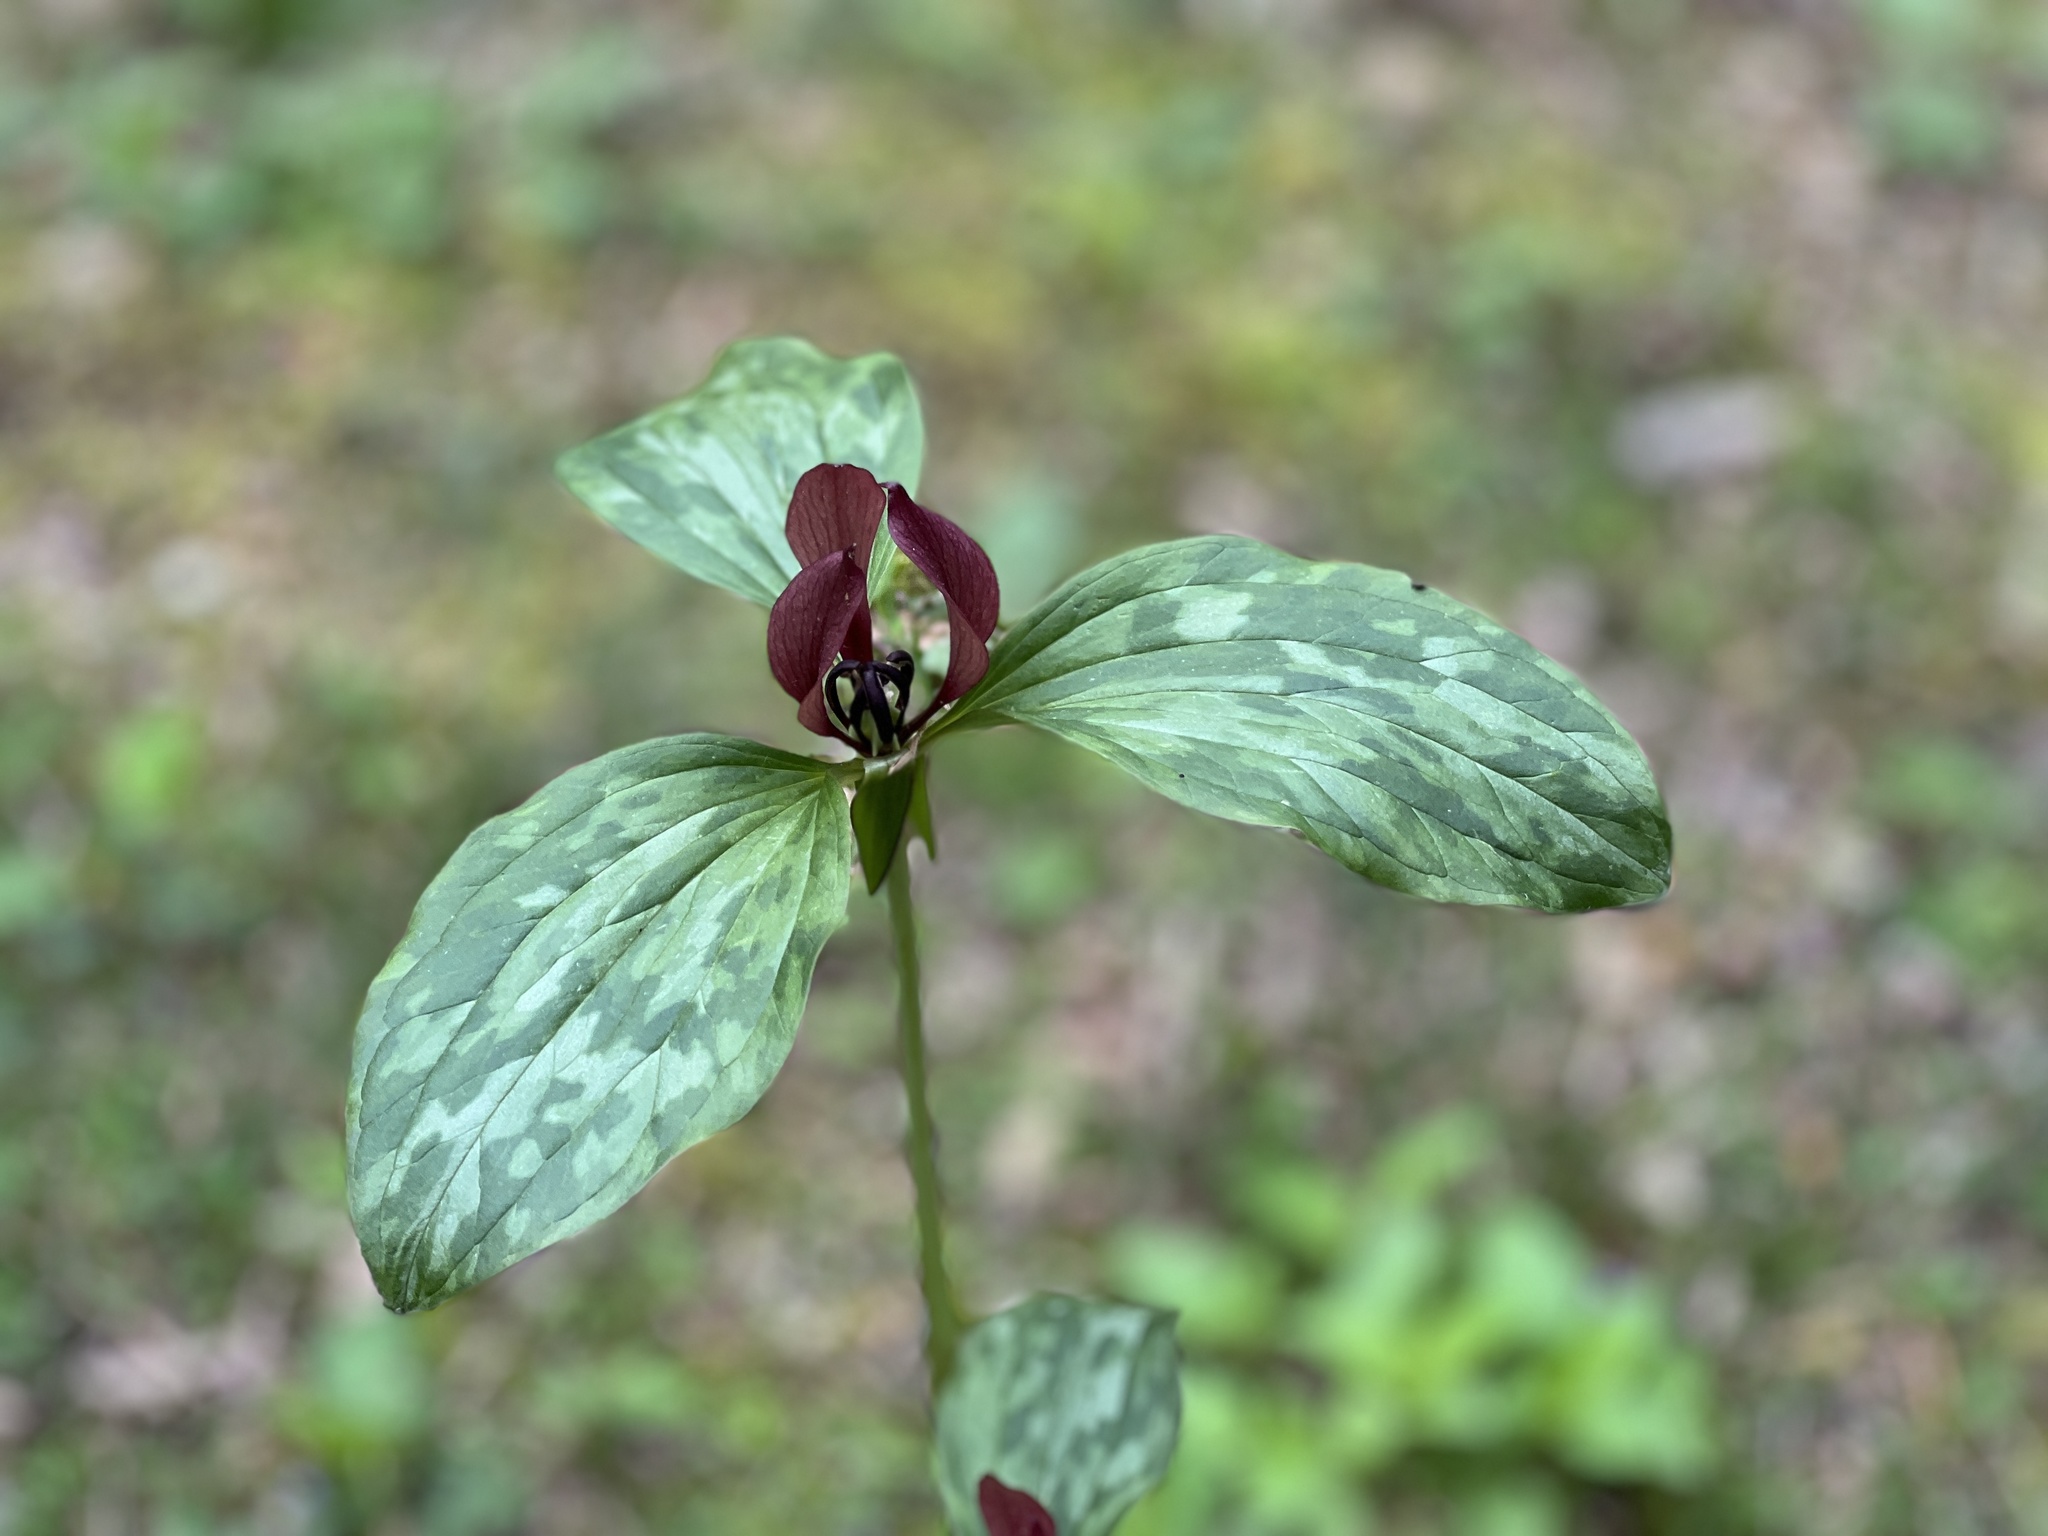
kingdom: Plantae
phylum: Tracheophyta
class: Liliopsida
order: Liliales
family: Melanthiaceae
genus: Trillium
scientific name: Trillium recurvatum
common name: Bloody butcher
